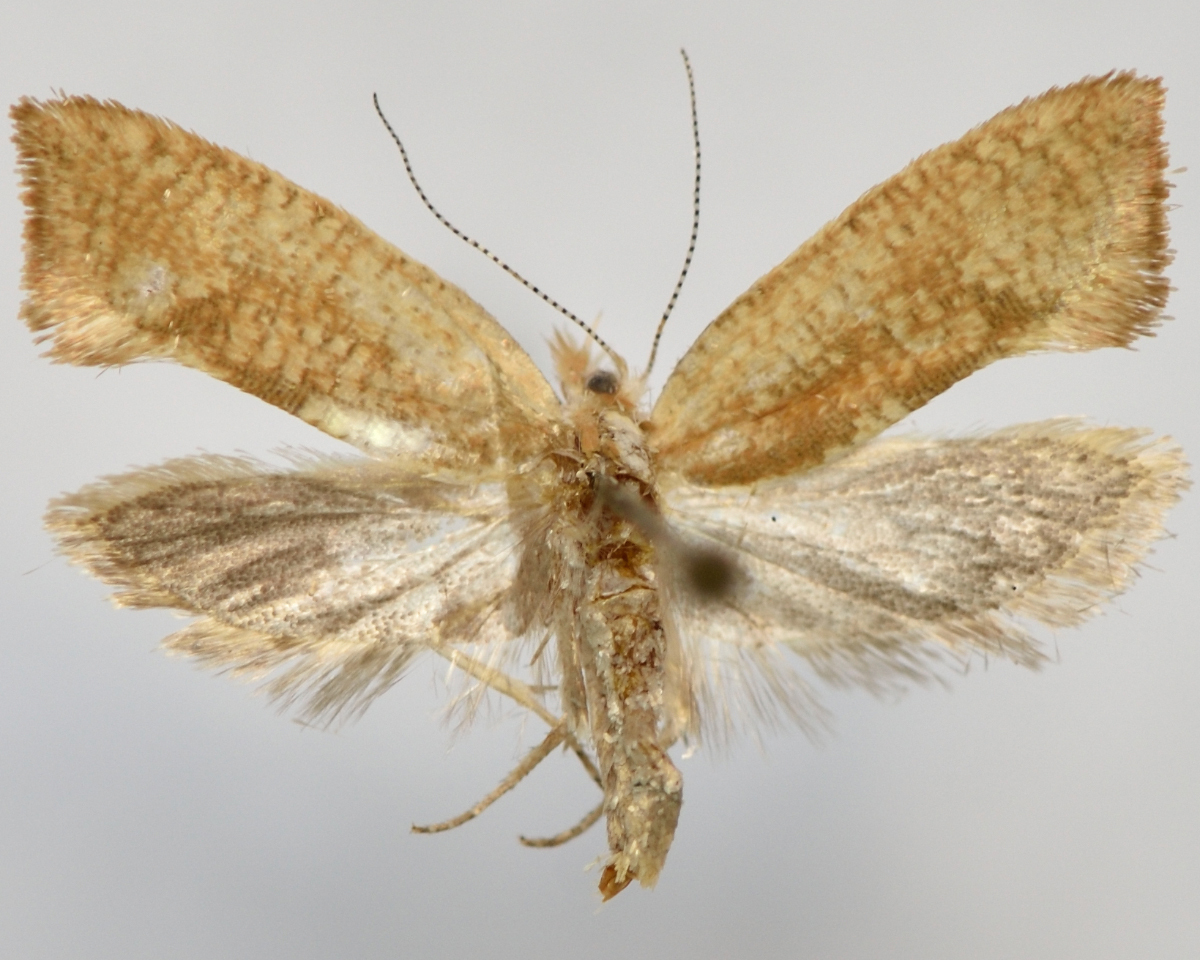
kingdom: Animalia
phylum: Arthropoda
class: Insecta
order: Lepidoptera
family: Ypsolophidae
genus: Ypsolopha
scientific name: Ypsolopha lucella
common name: Plain smudge
